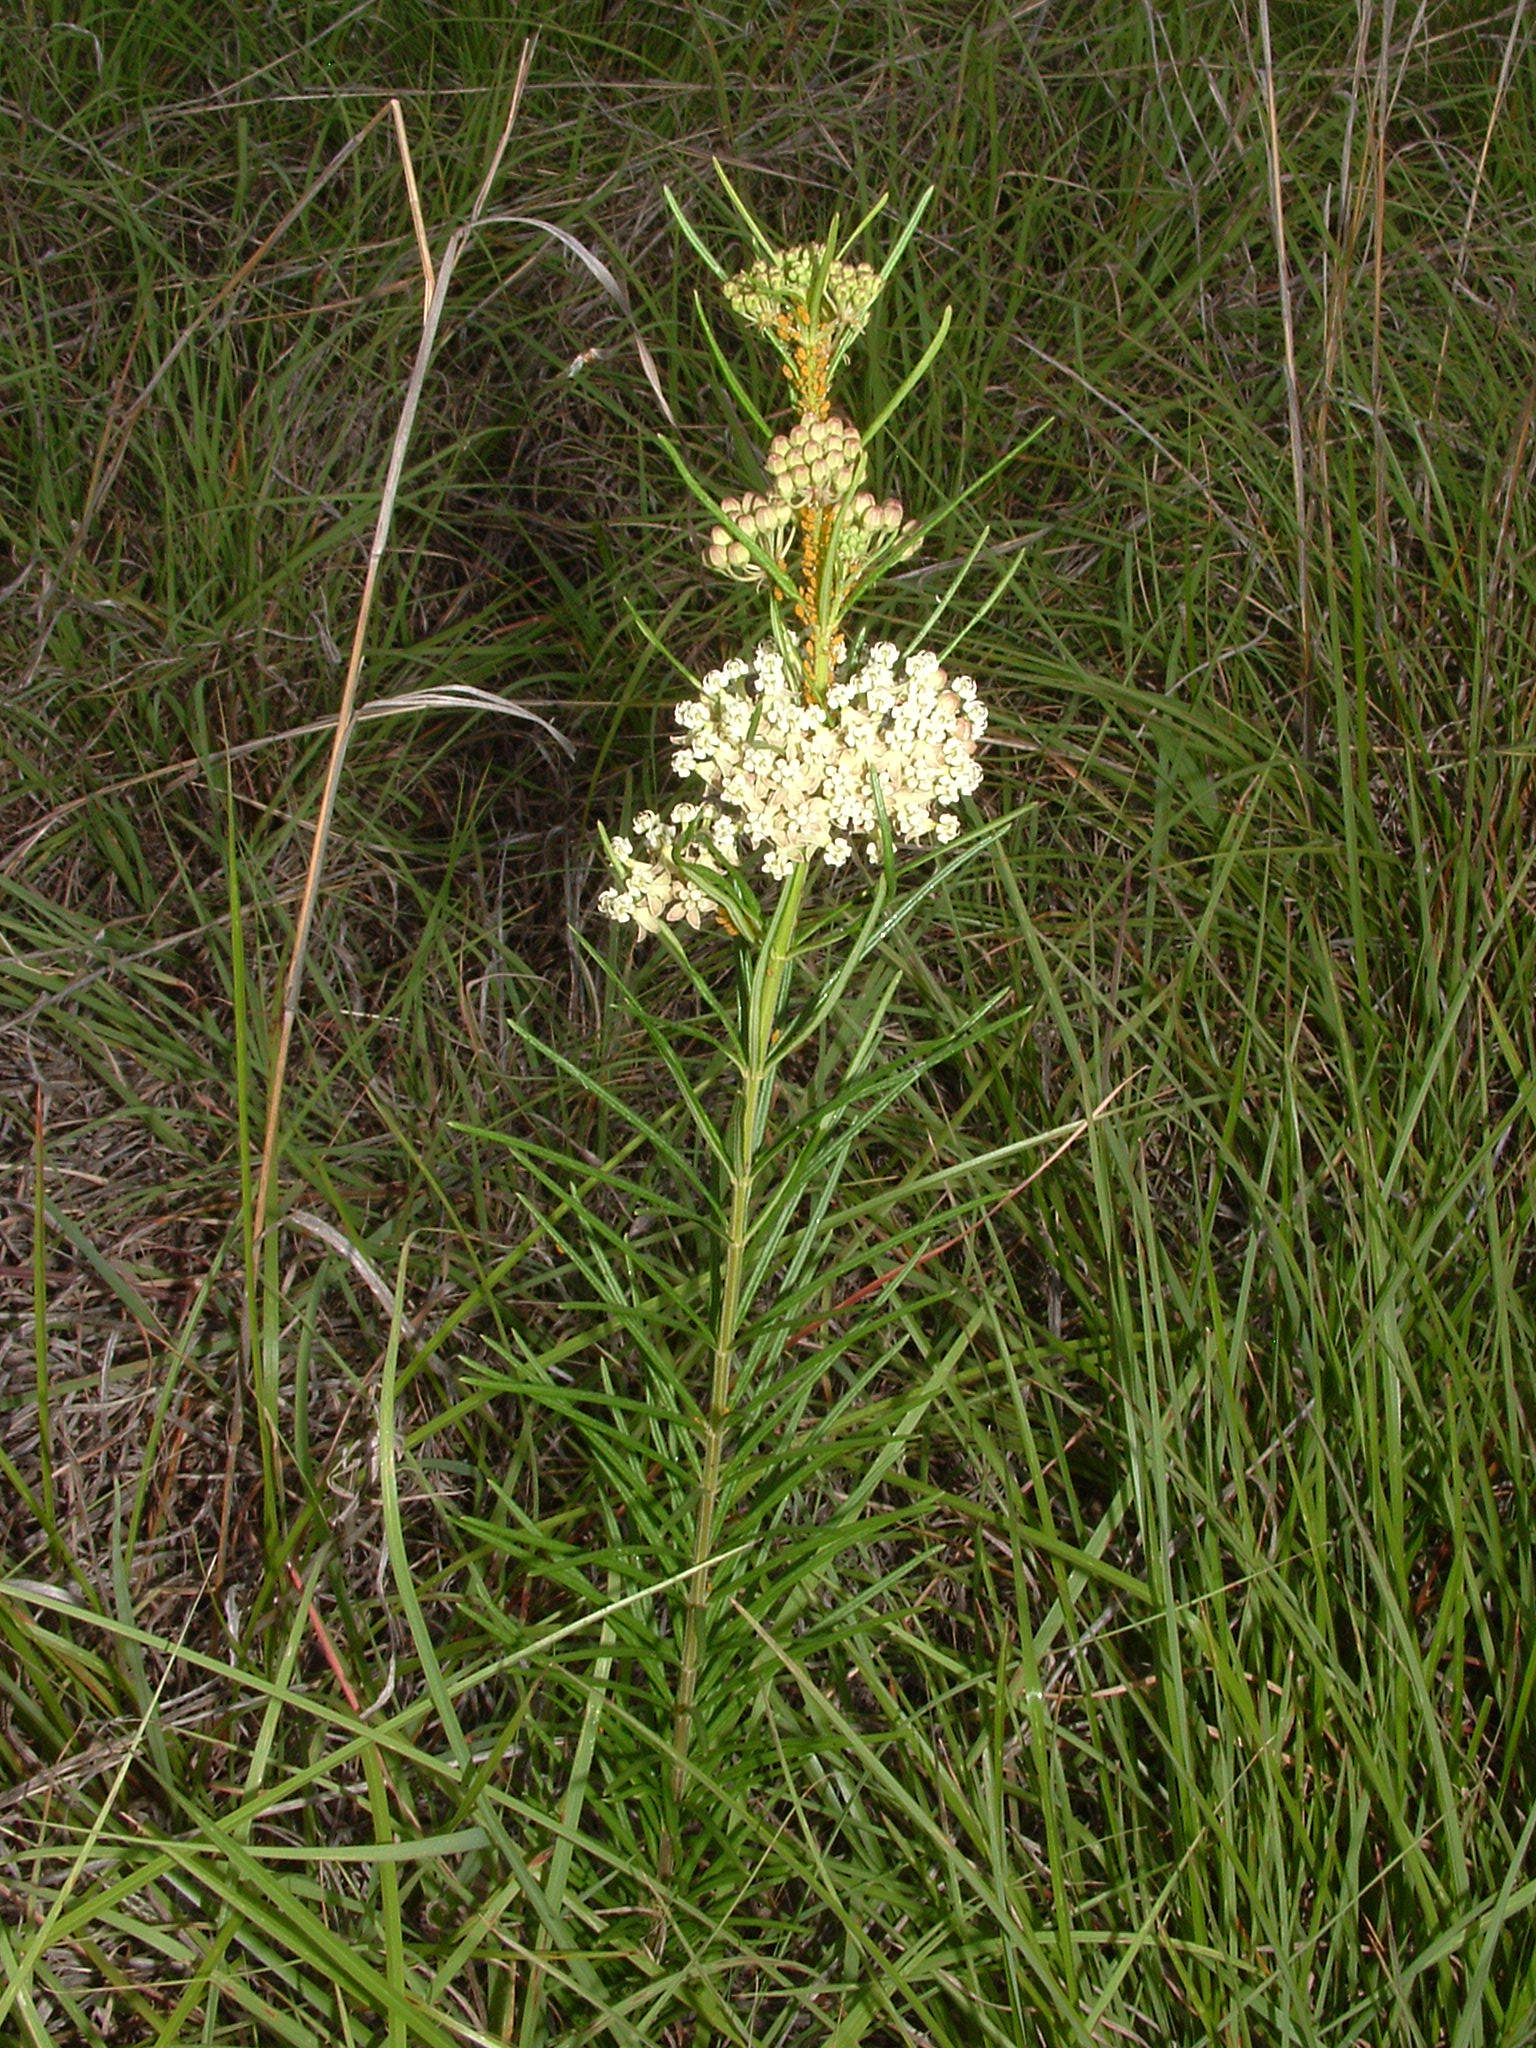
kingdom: Plantae
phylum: Tracheophyta
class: Magnoliopsida
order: Gentianales
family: Apocynaceae
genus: Asclepias
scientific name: Asclepias verticillata
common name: Eastern whorled milkweed
